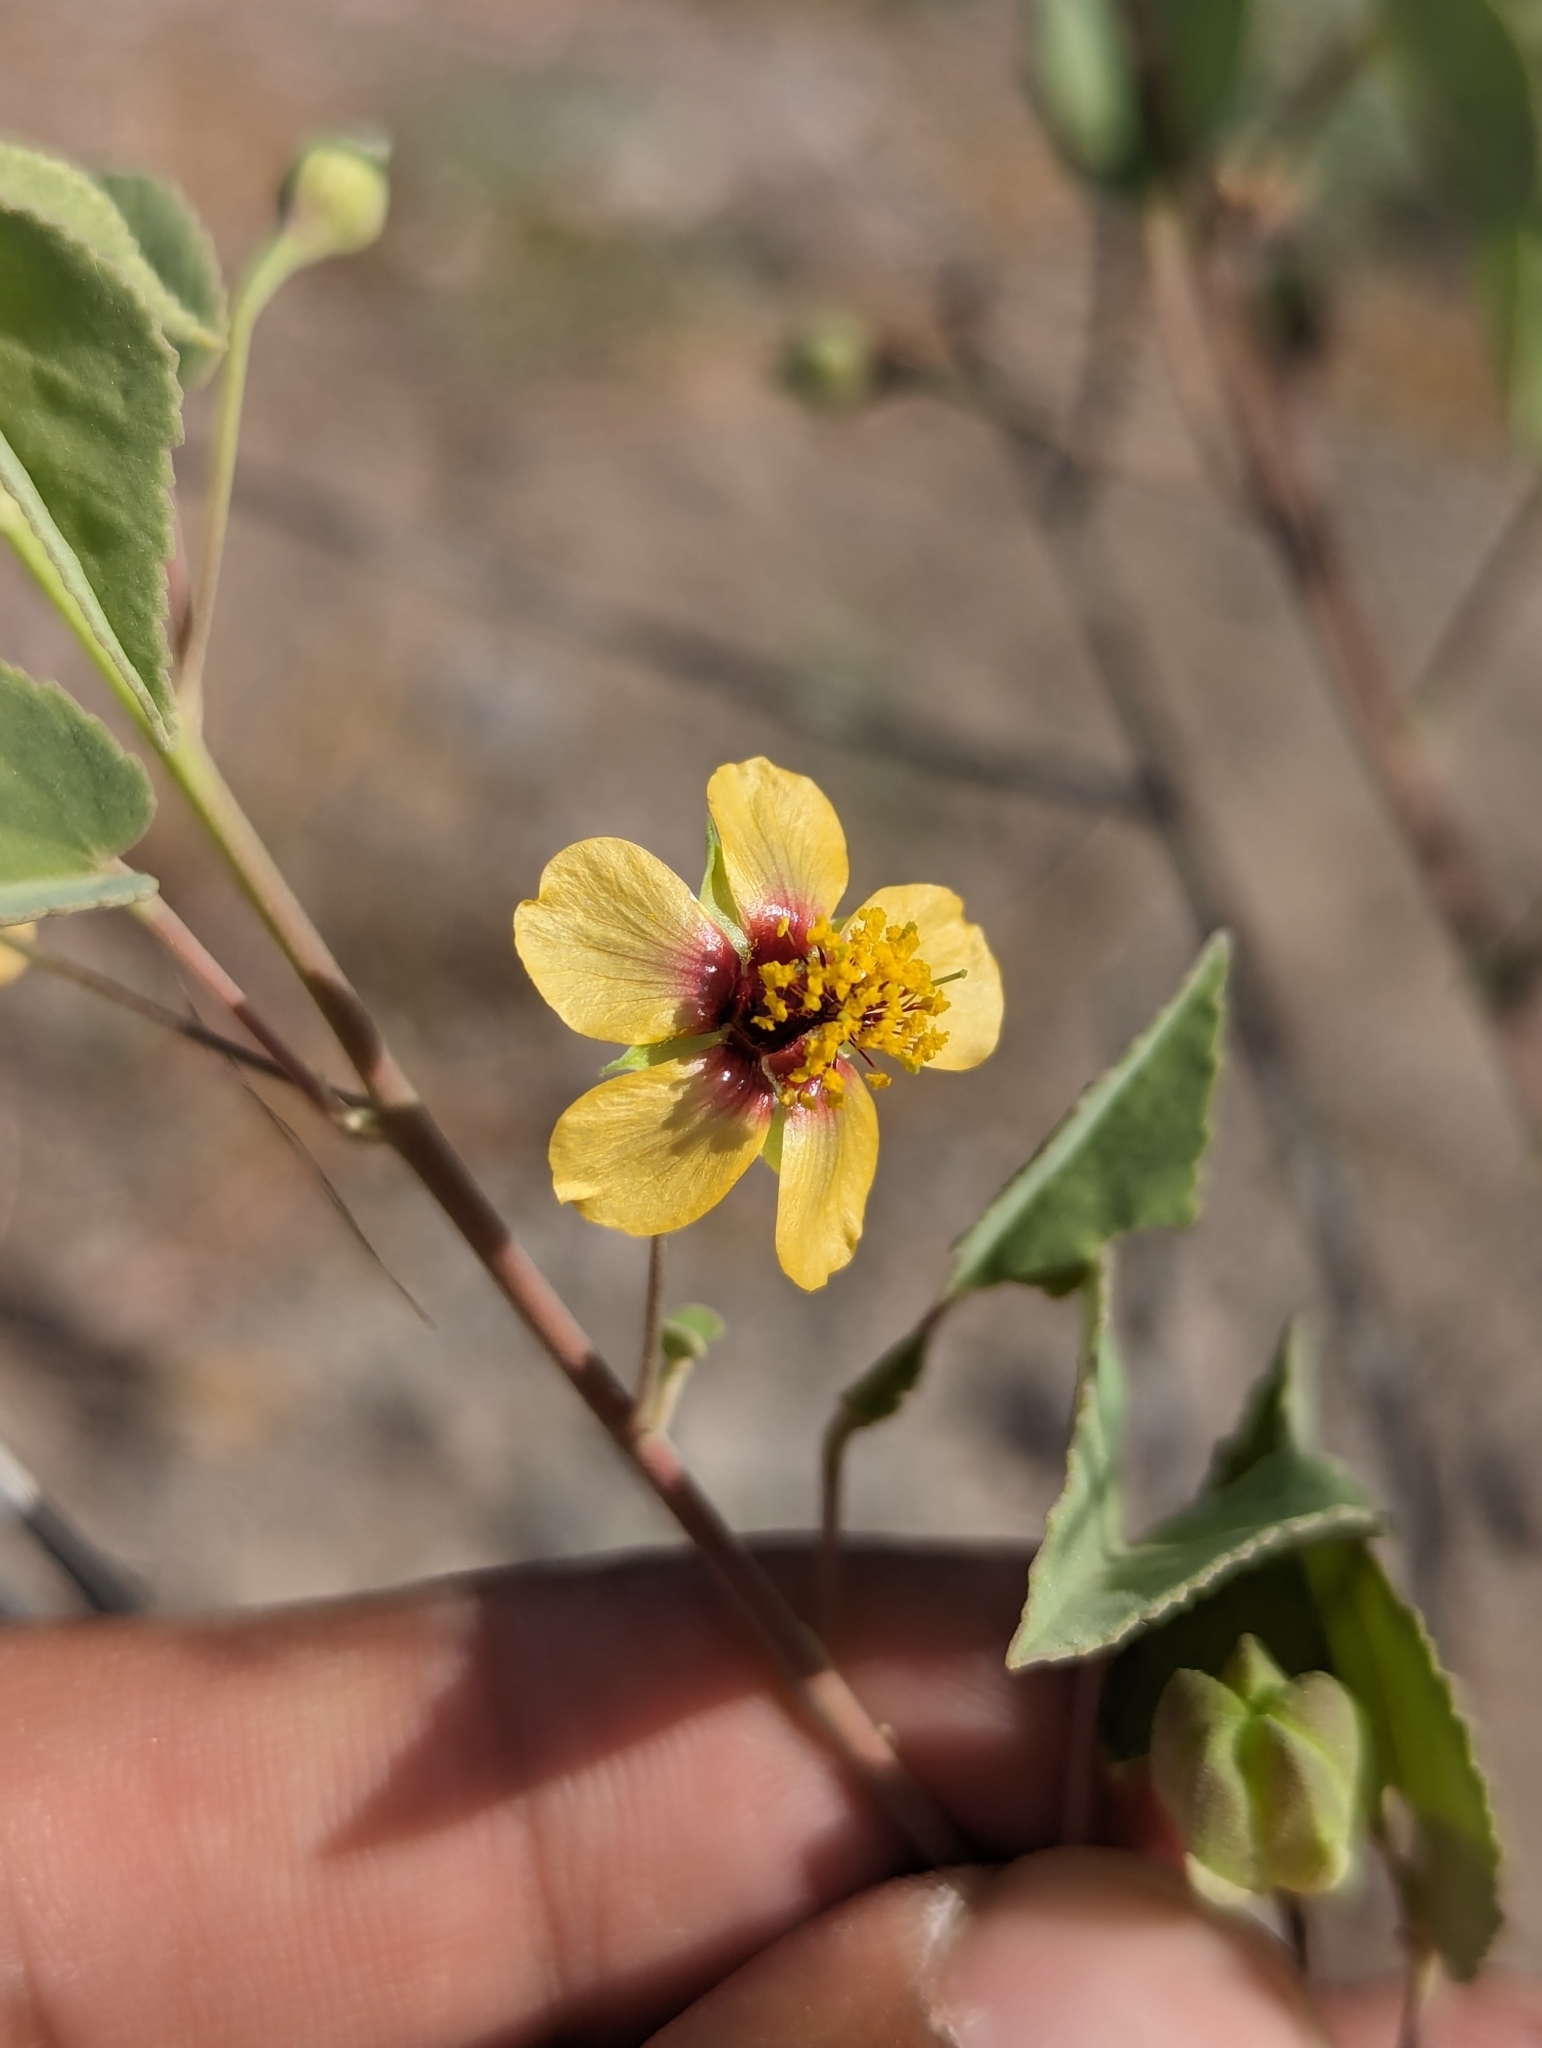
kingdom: Plantae
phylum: Tracheophyta
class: Magnoliopsida
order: Malvales
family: Malvaceae
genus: Abutilon
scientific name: Abutilon incanum
